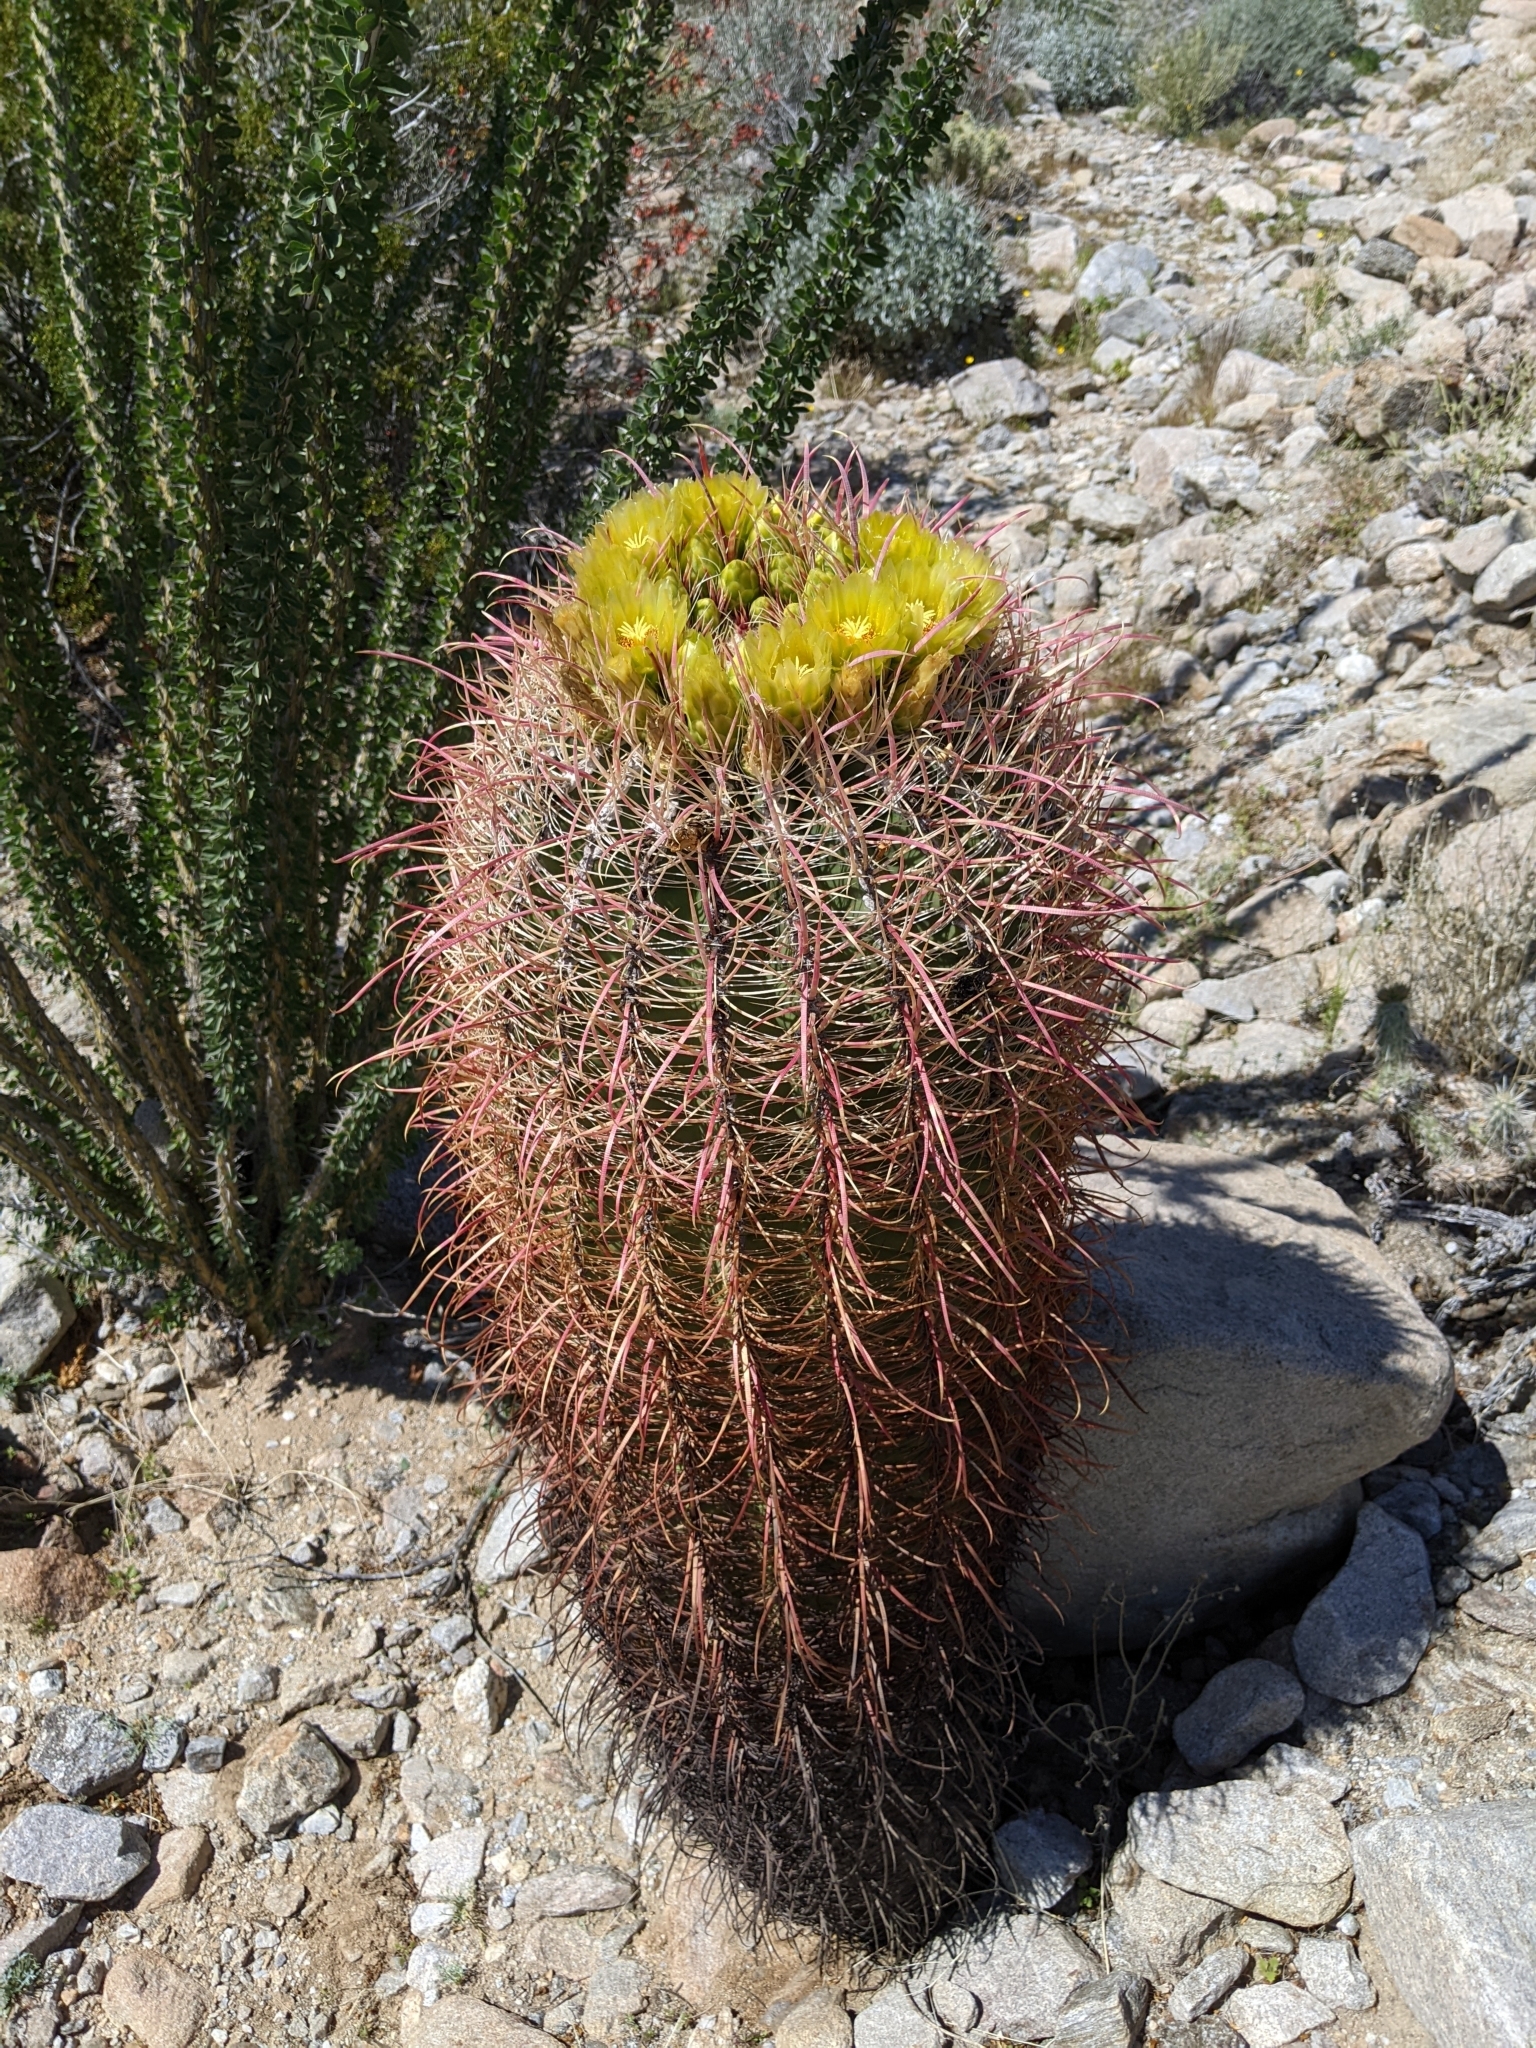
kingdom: Plantae
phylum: Tracheophyta
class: Magnoliopsida
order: Caryophyllales
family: Cactaceae
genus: Ferocactus
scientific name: Ferocactus cylindraceus
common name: California barrel cactus
